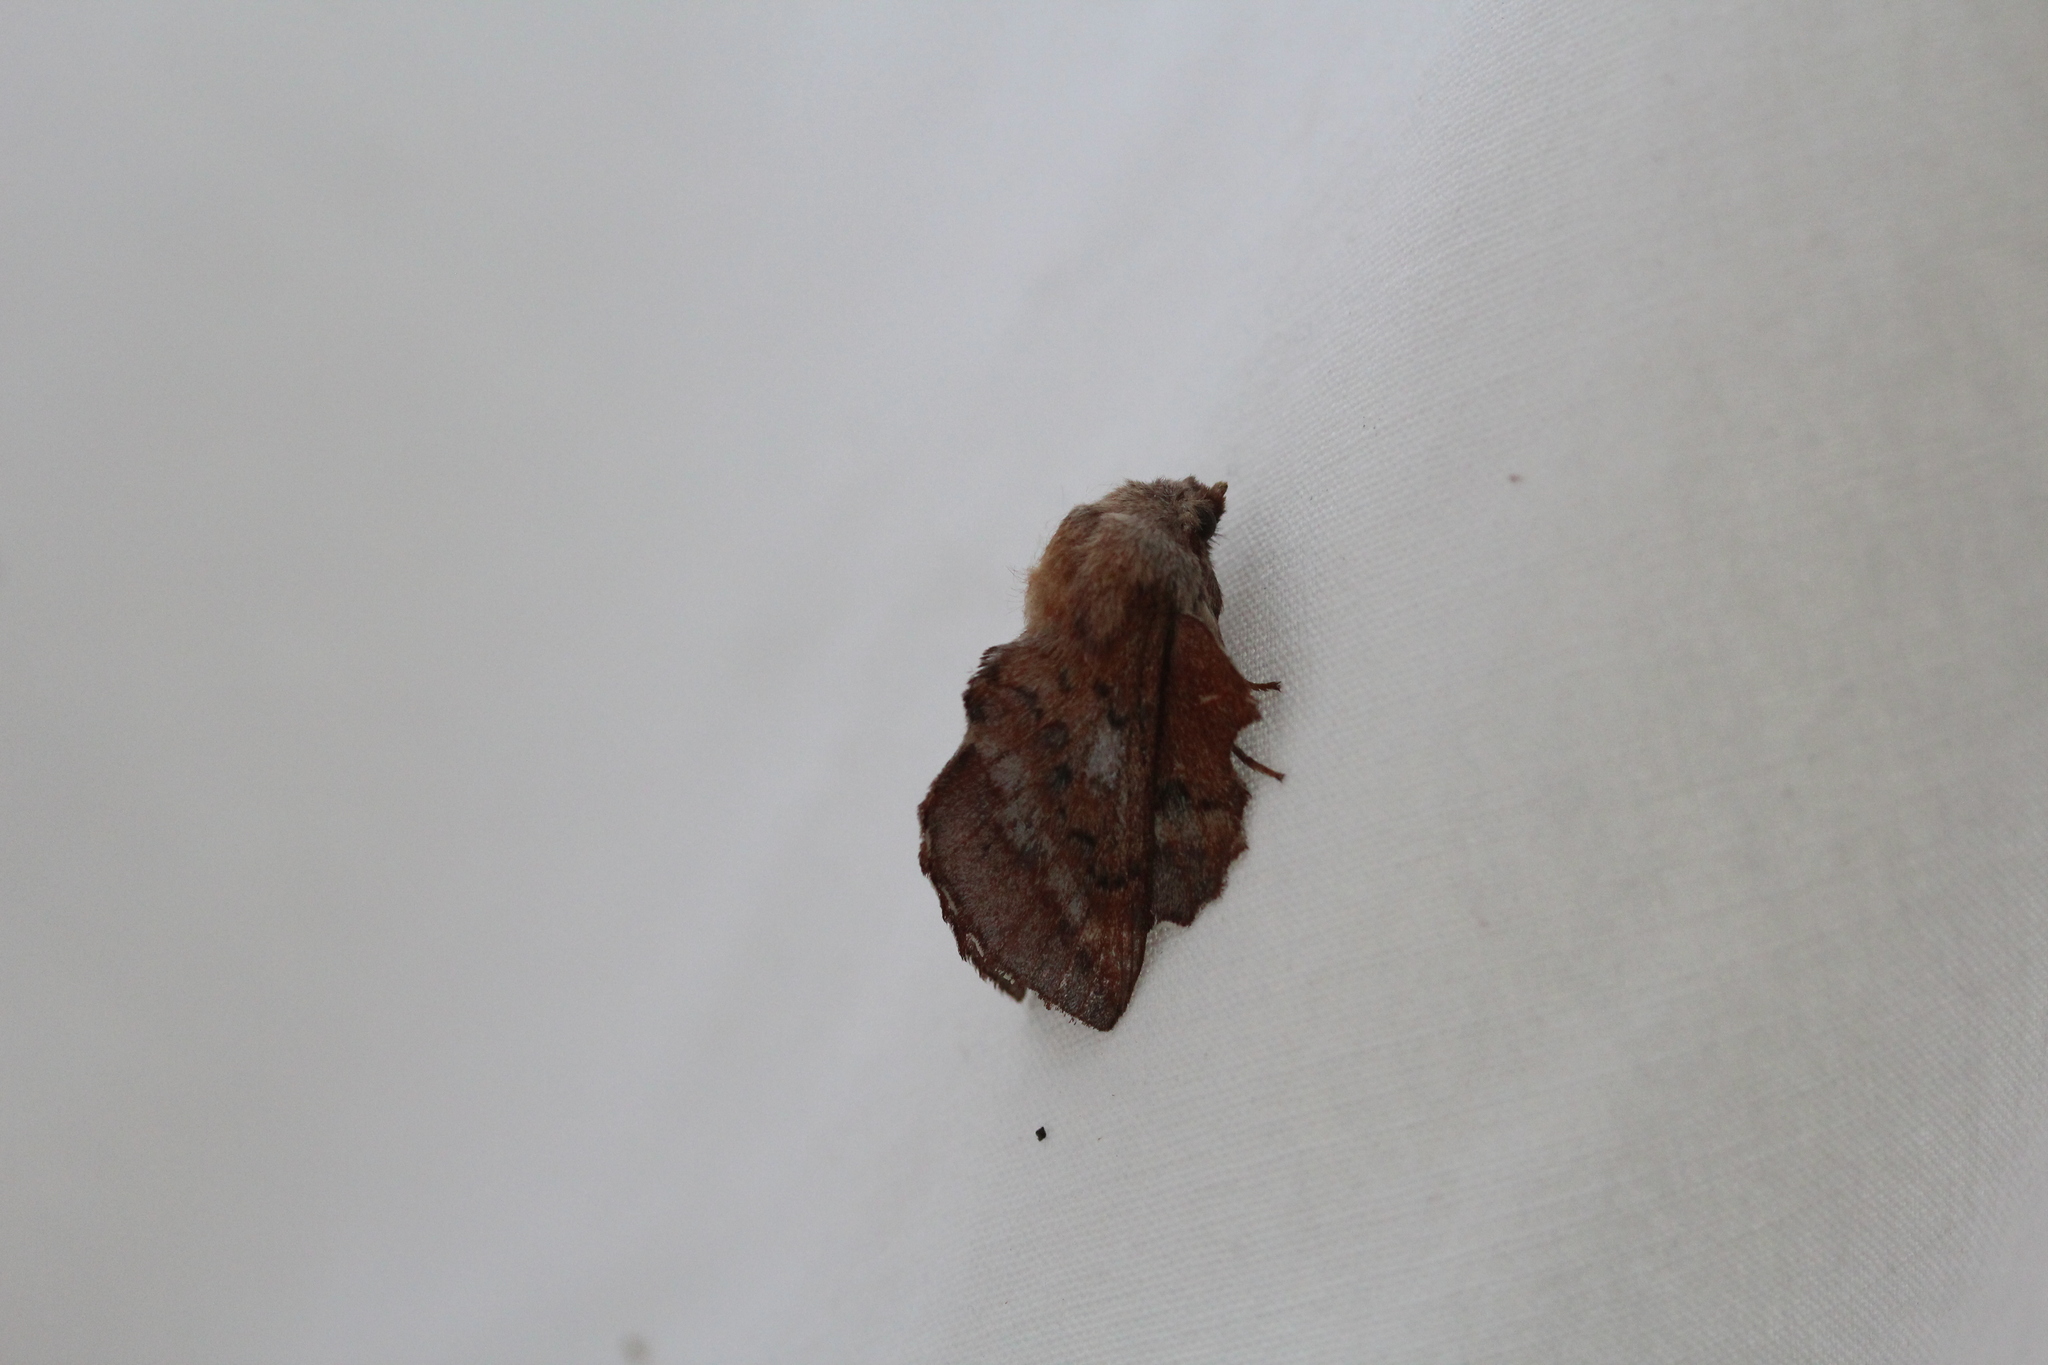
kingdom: Animalia
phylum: Arthropoda
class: Insecta
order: Lepidoptera
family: Lasiocampidae
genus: Phyllodesma
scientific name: Phyllodesma americana
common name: American lappet moth
